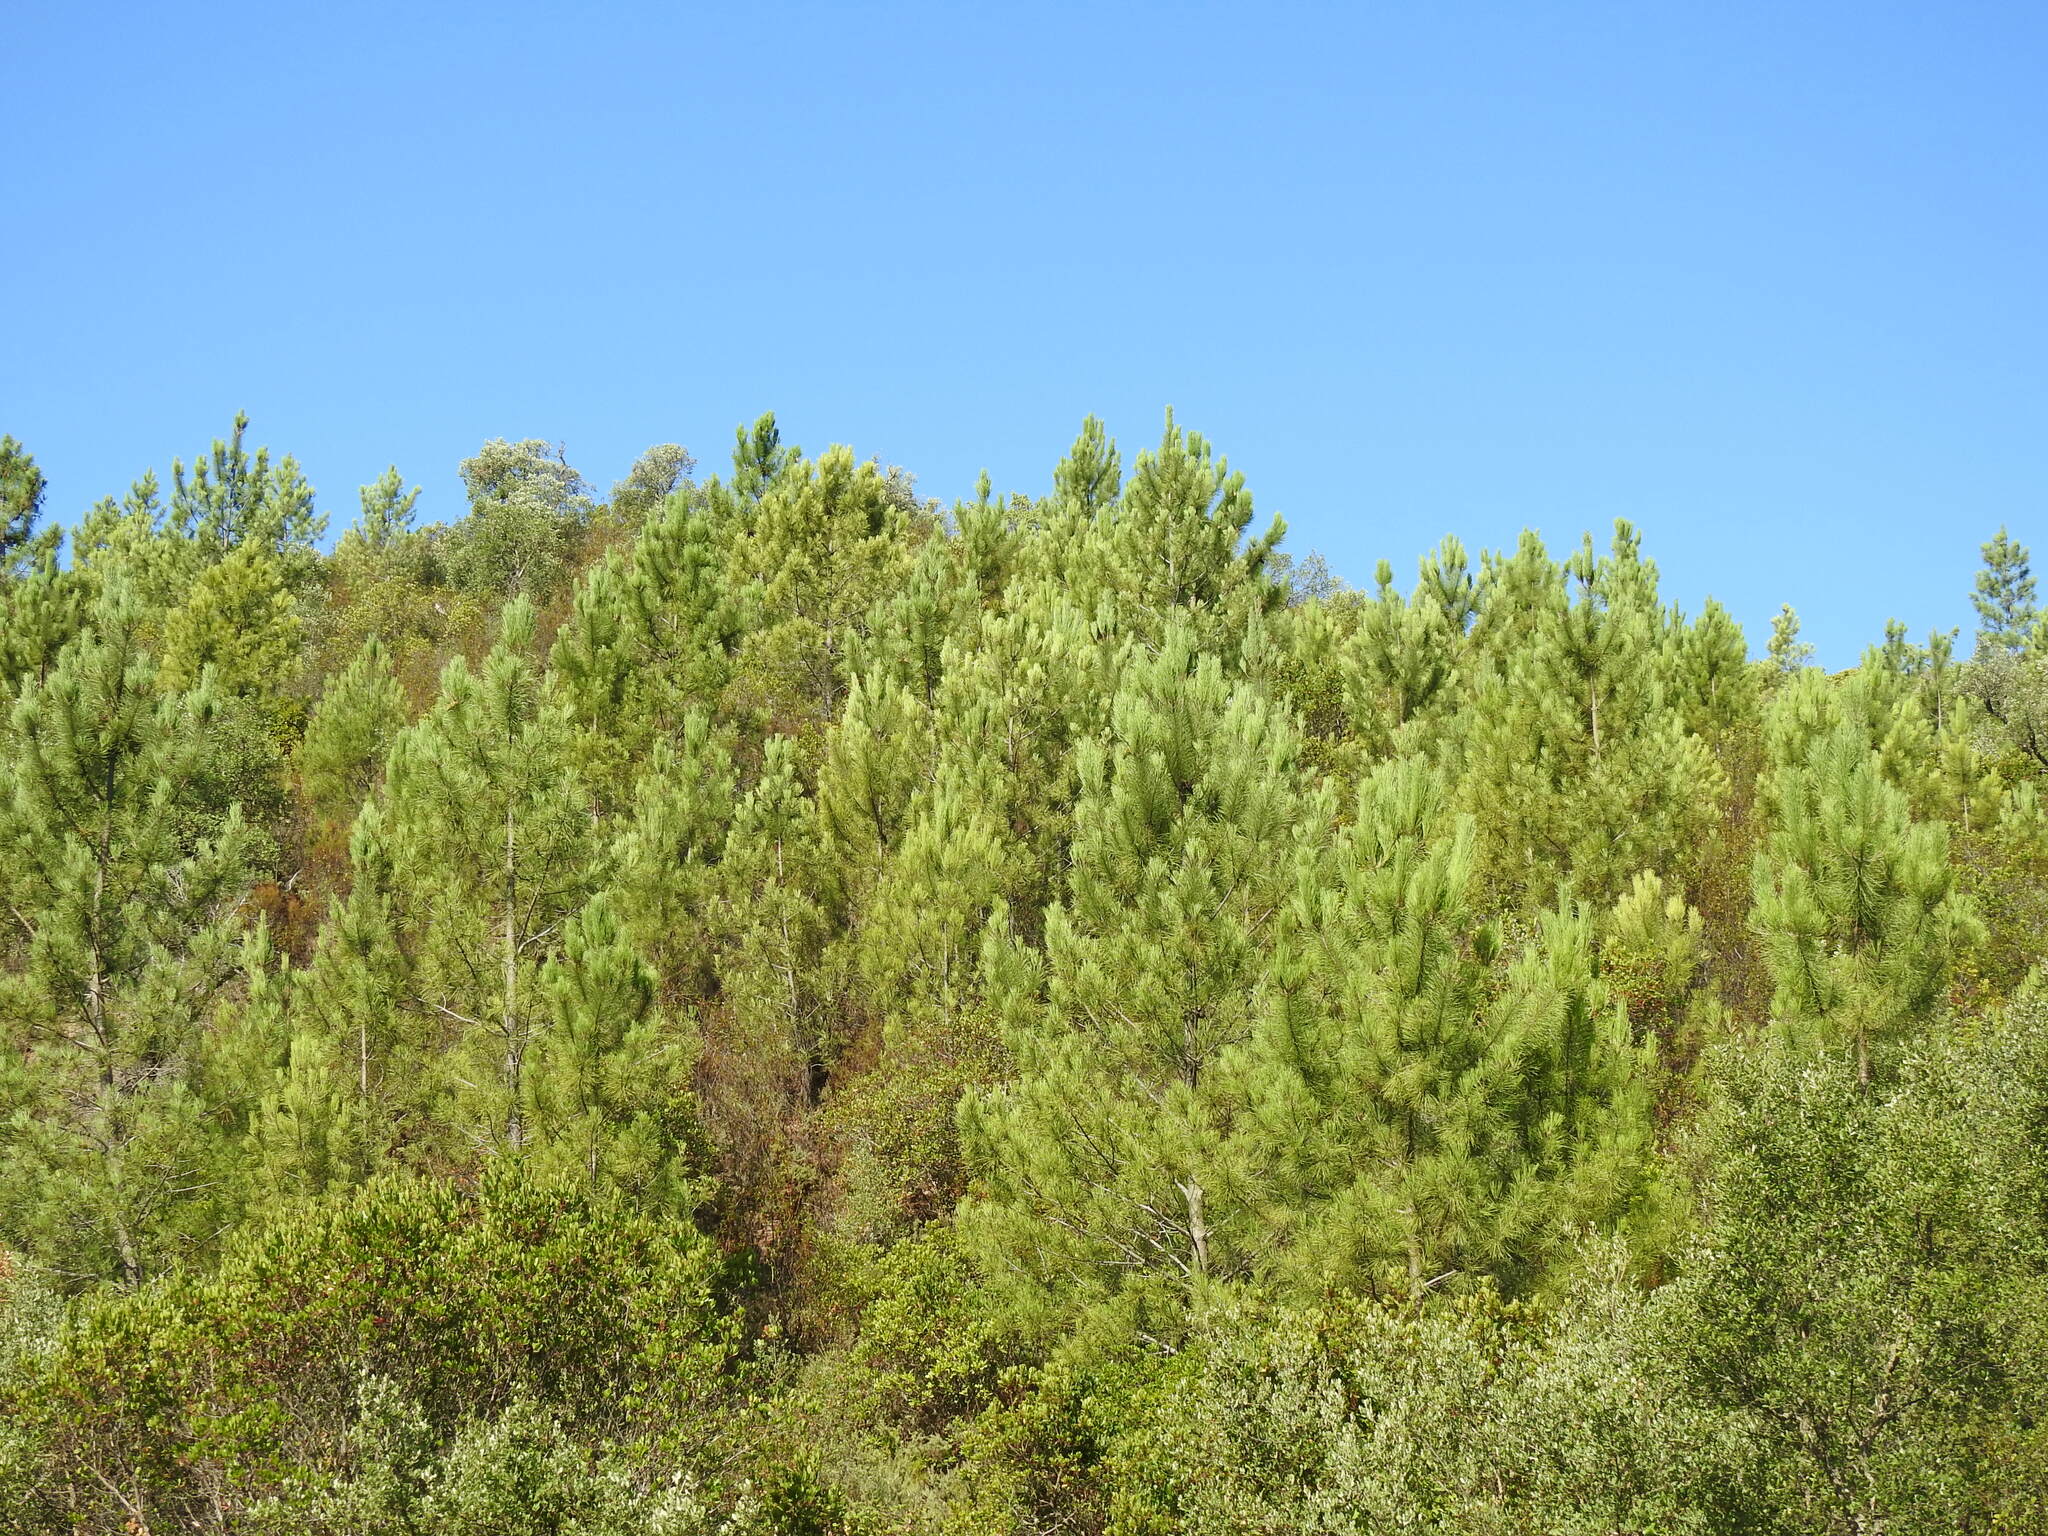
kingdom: Plantae
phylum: Tracheophyta
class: Pinopsida
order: Pinales
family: Pinaceae
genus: Pinus
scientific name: Pinus pinaster
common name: Maritime pine
